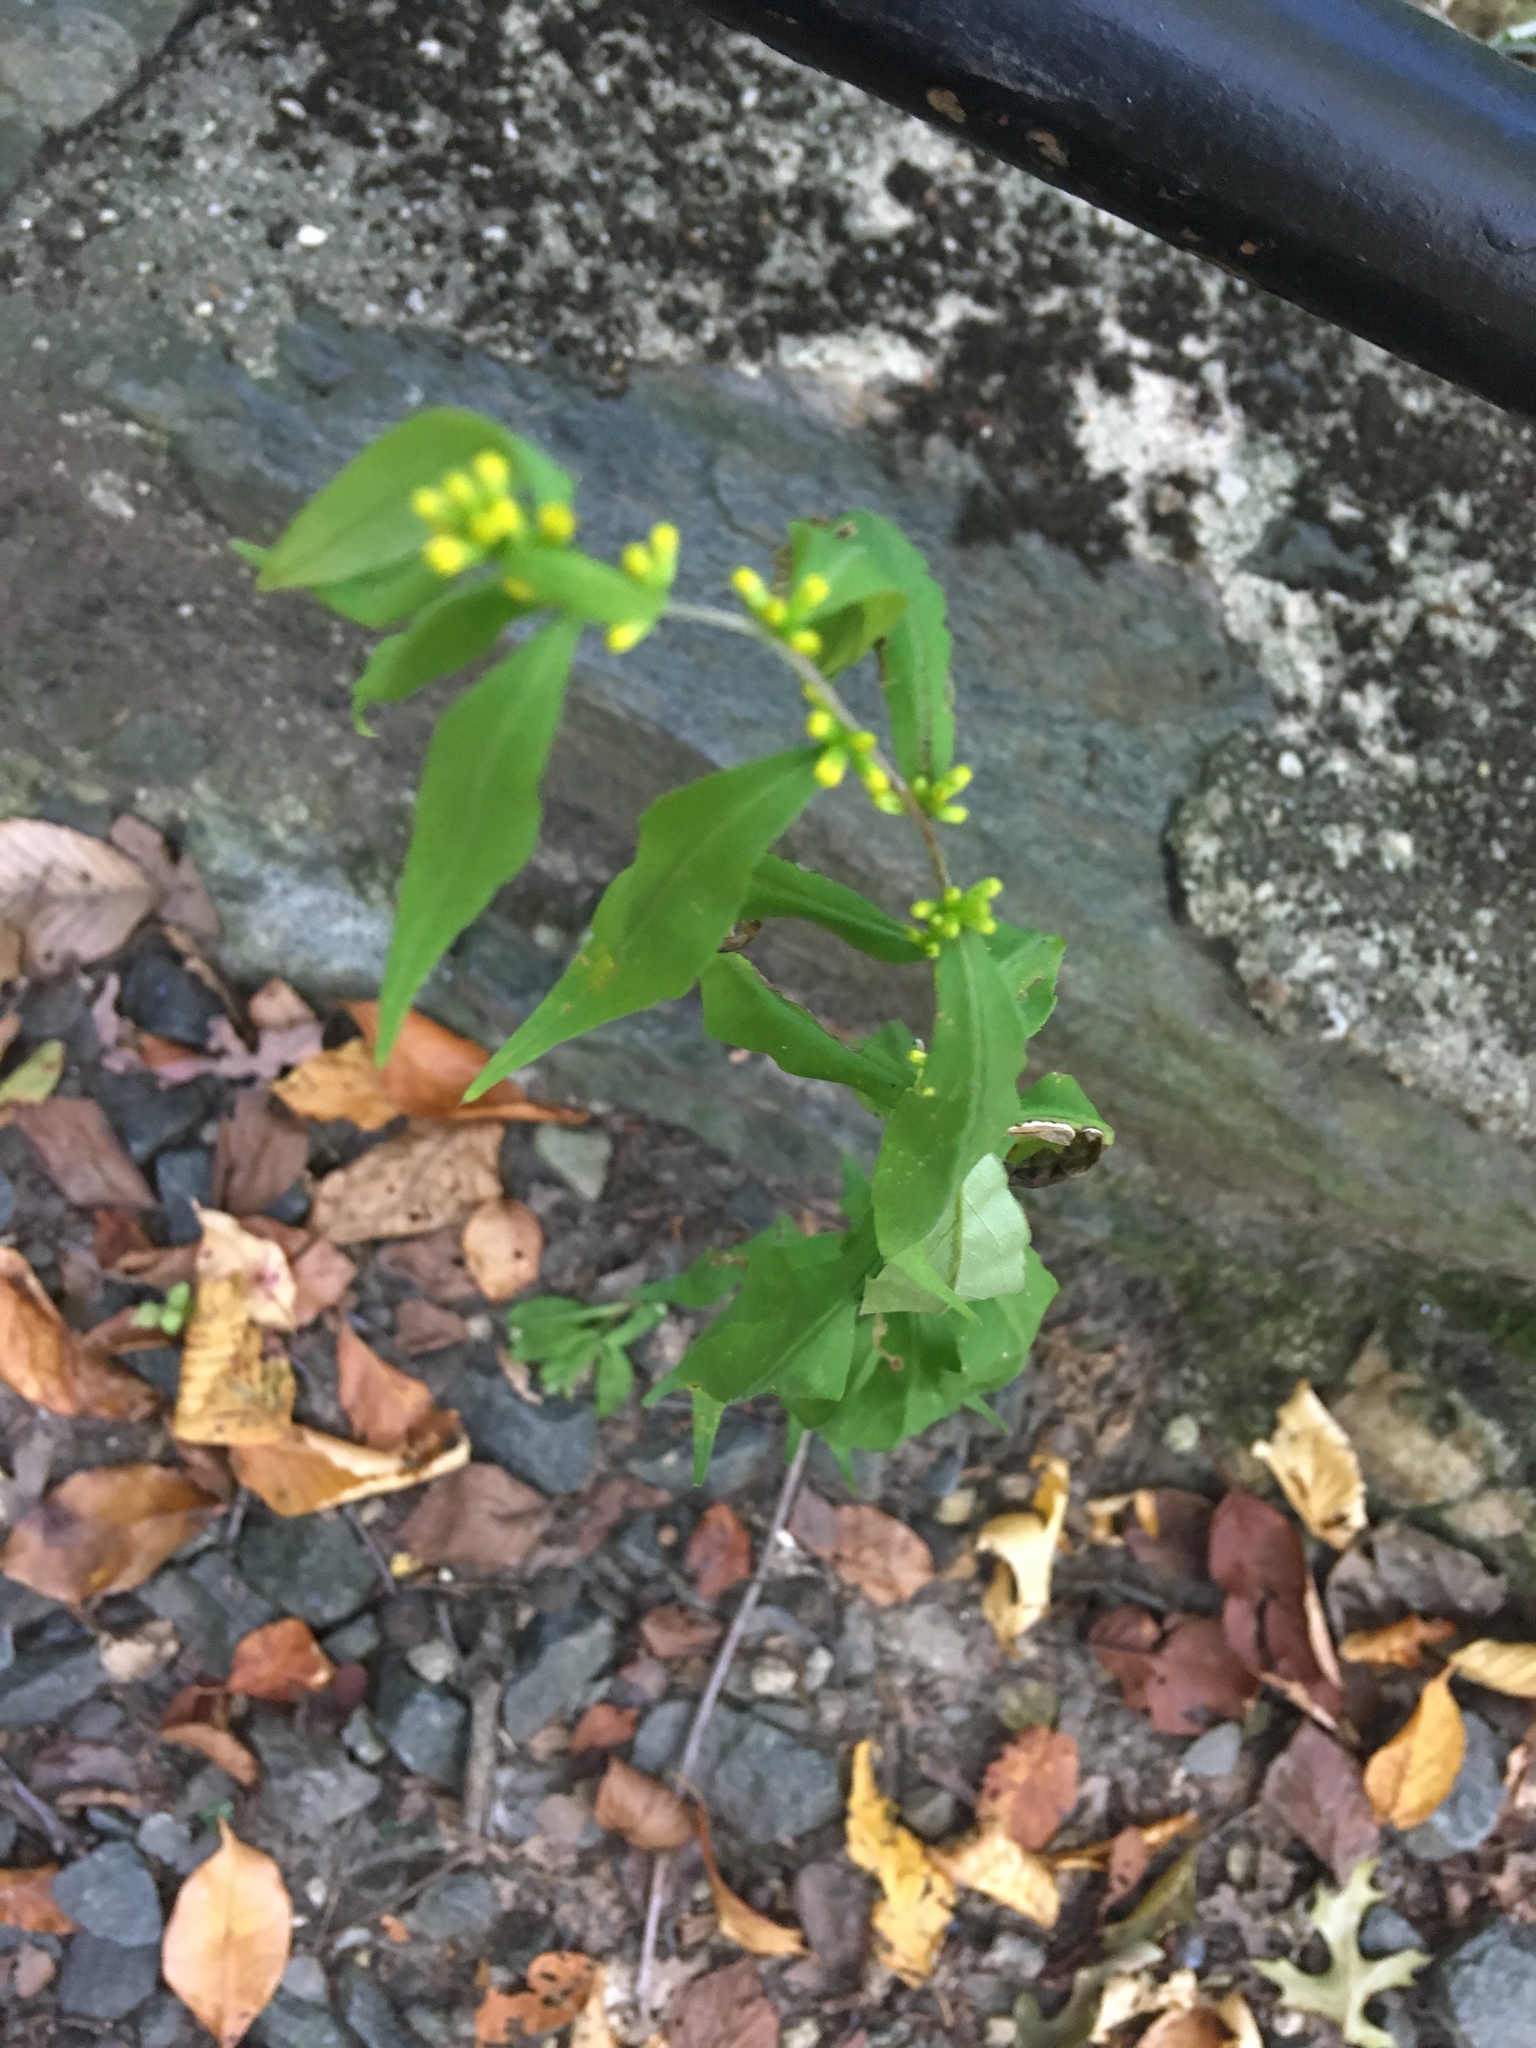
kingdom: Plantae
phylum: Tracheophyta
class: Magnoliopsida
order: Asterales
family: Asteraceae
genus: Solidago
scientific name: Solidago caesia
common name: Woodland goldenrod
